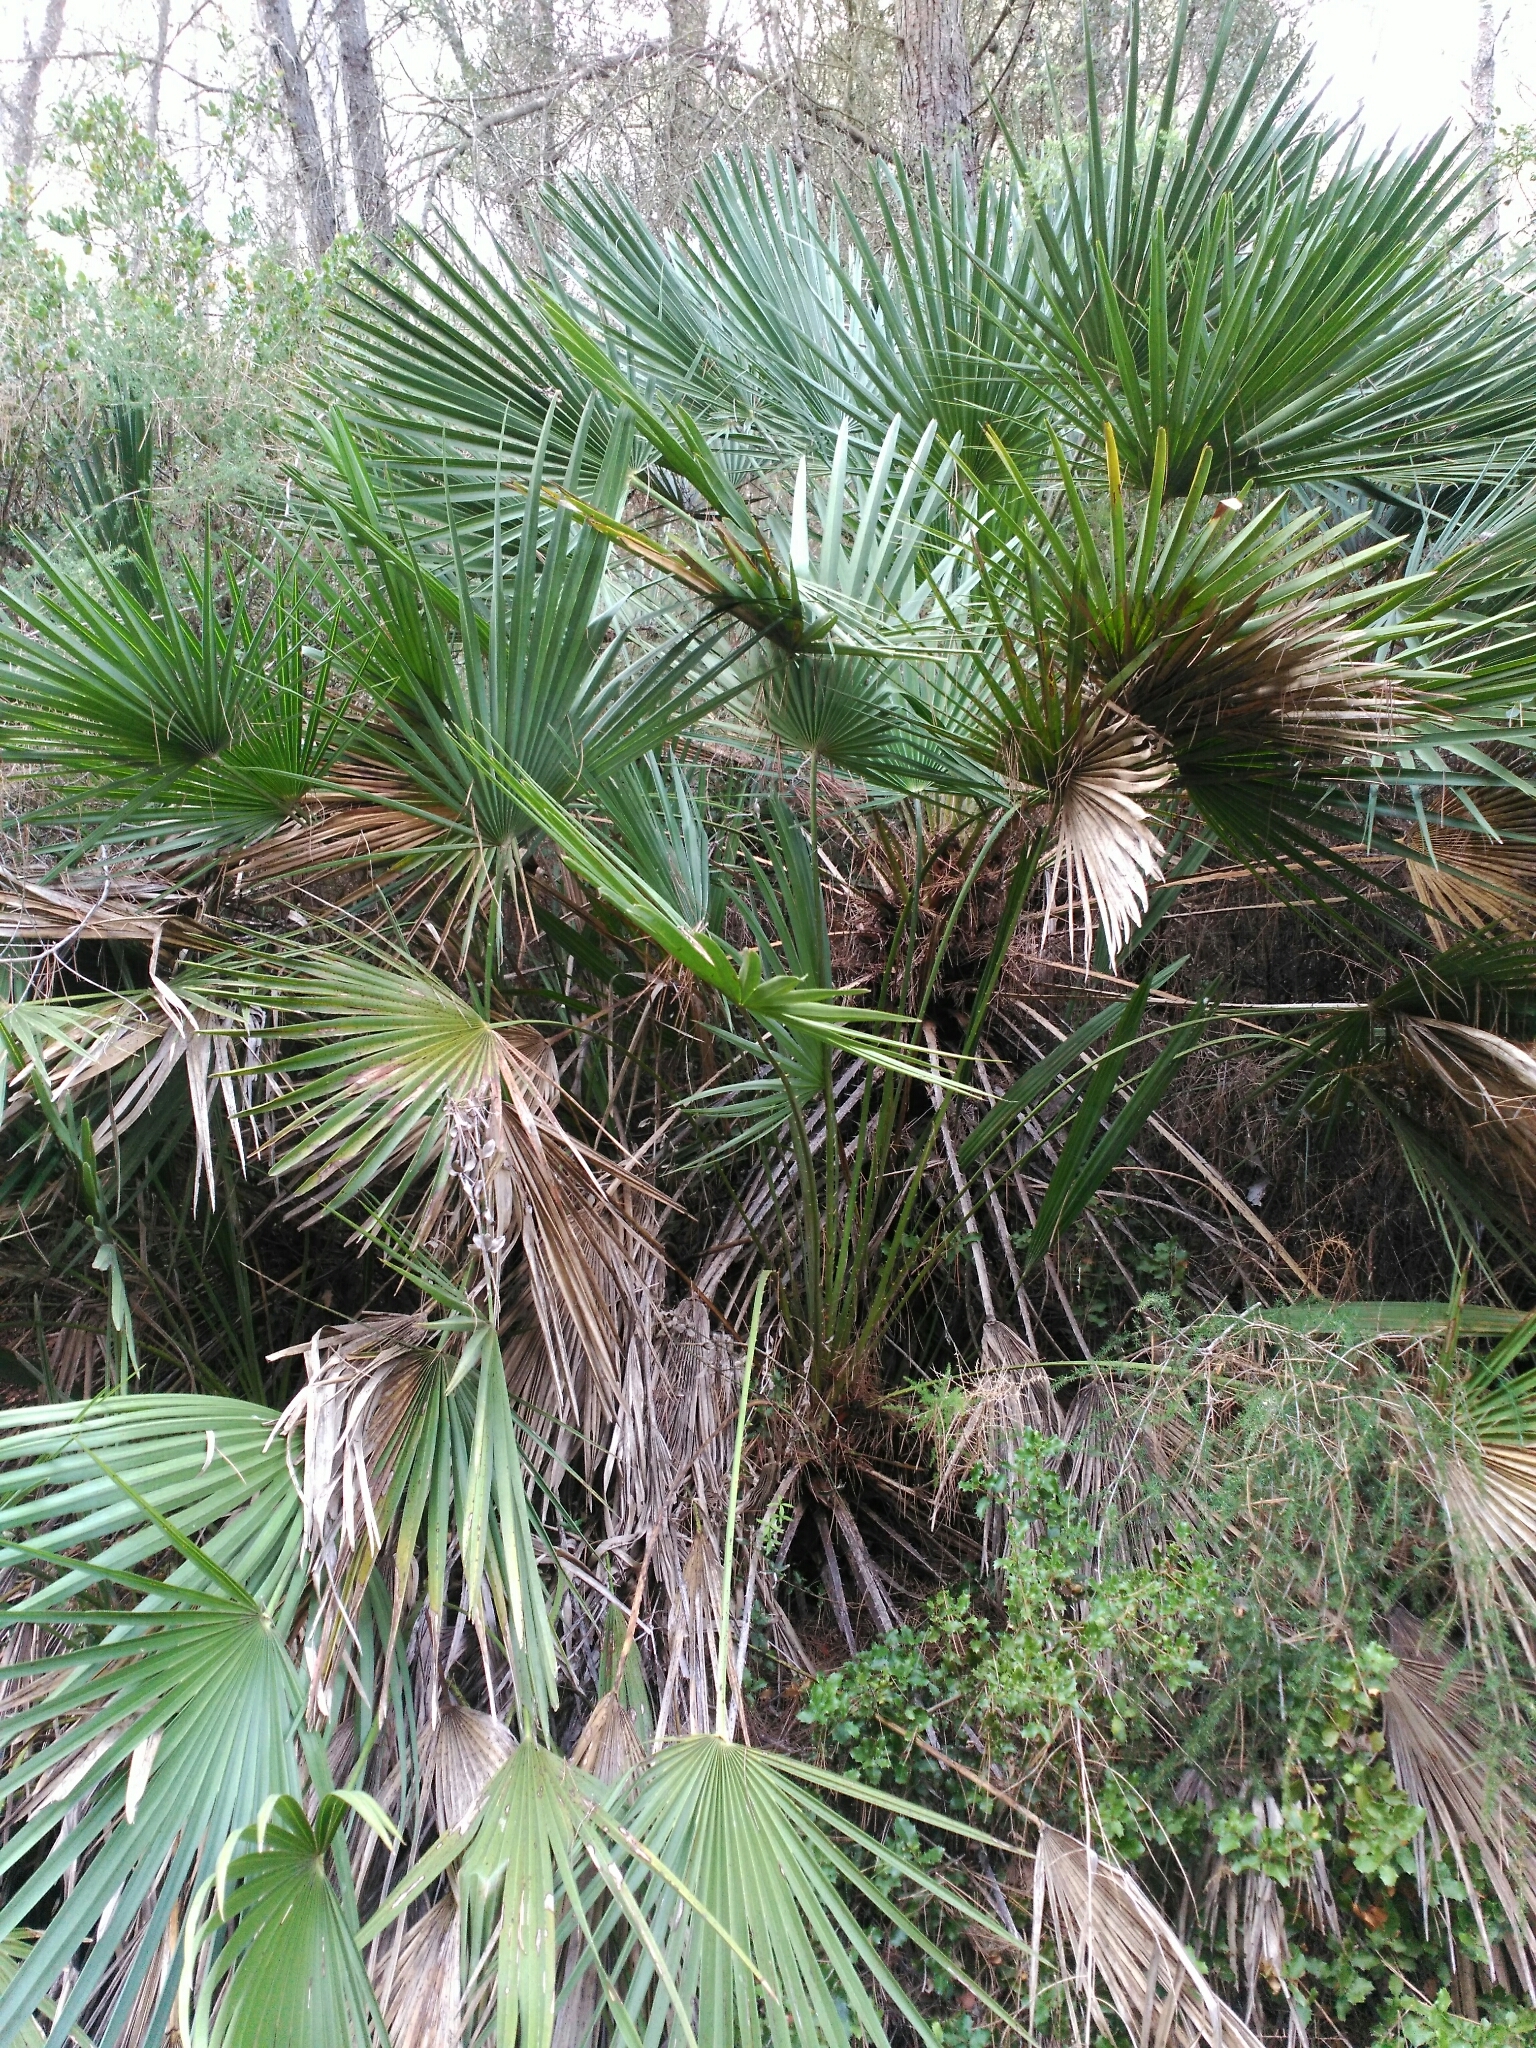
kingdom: Plantae
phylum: Tracheophyta
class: Liliopsida
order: Arecales
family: Arecaceae
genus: Chamaerops
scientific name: Chamaerops humilis
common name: Dwarf fan palm
